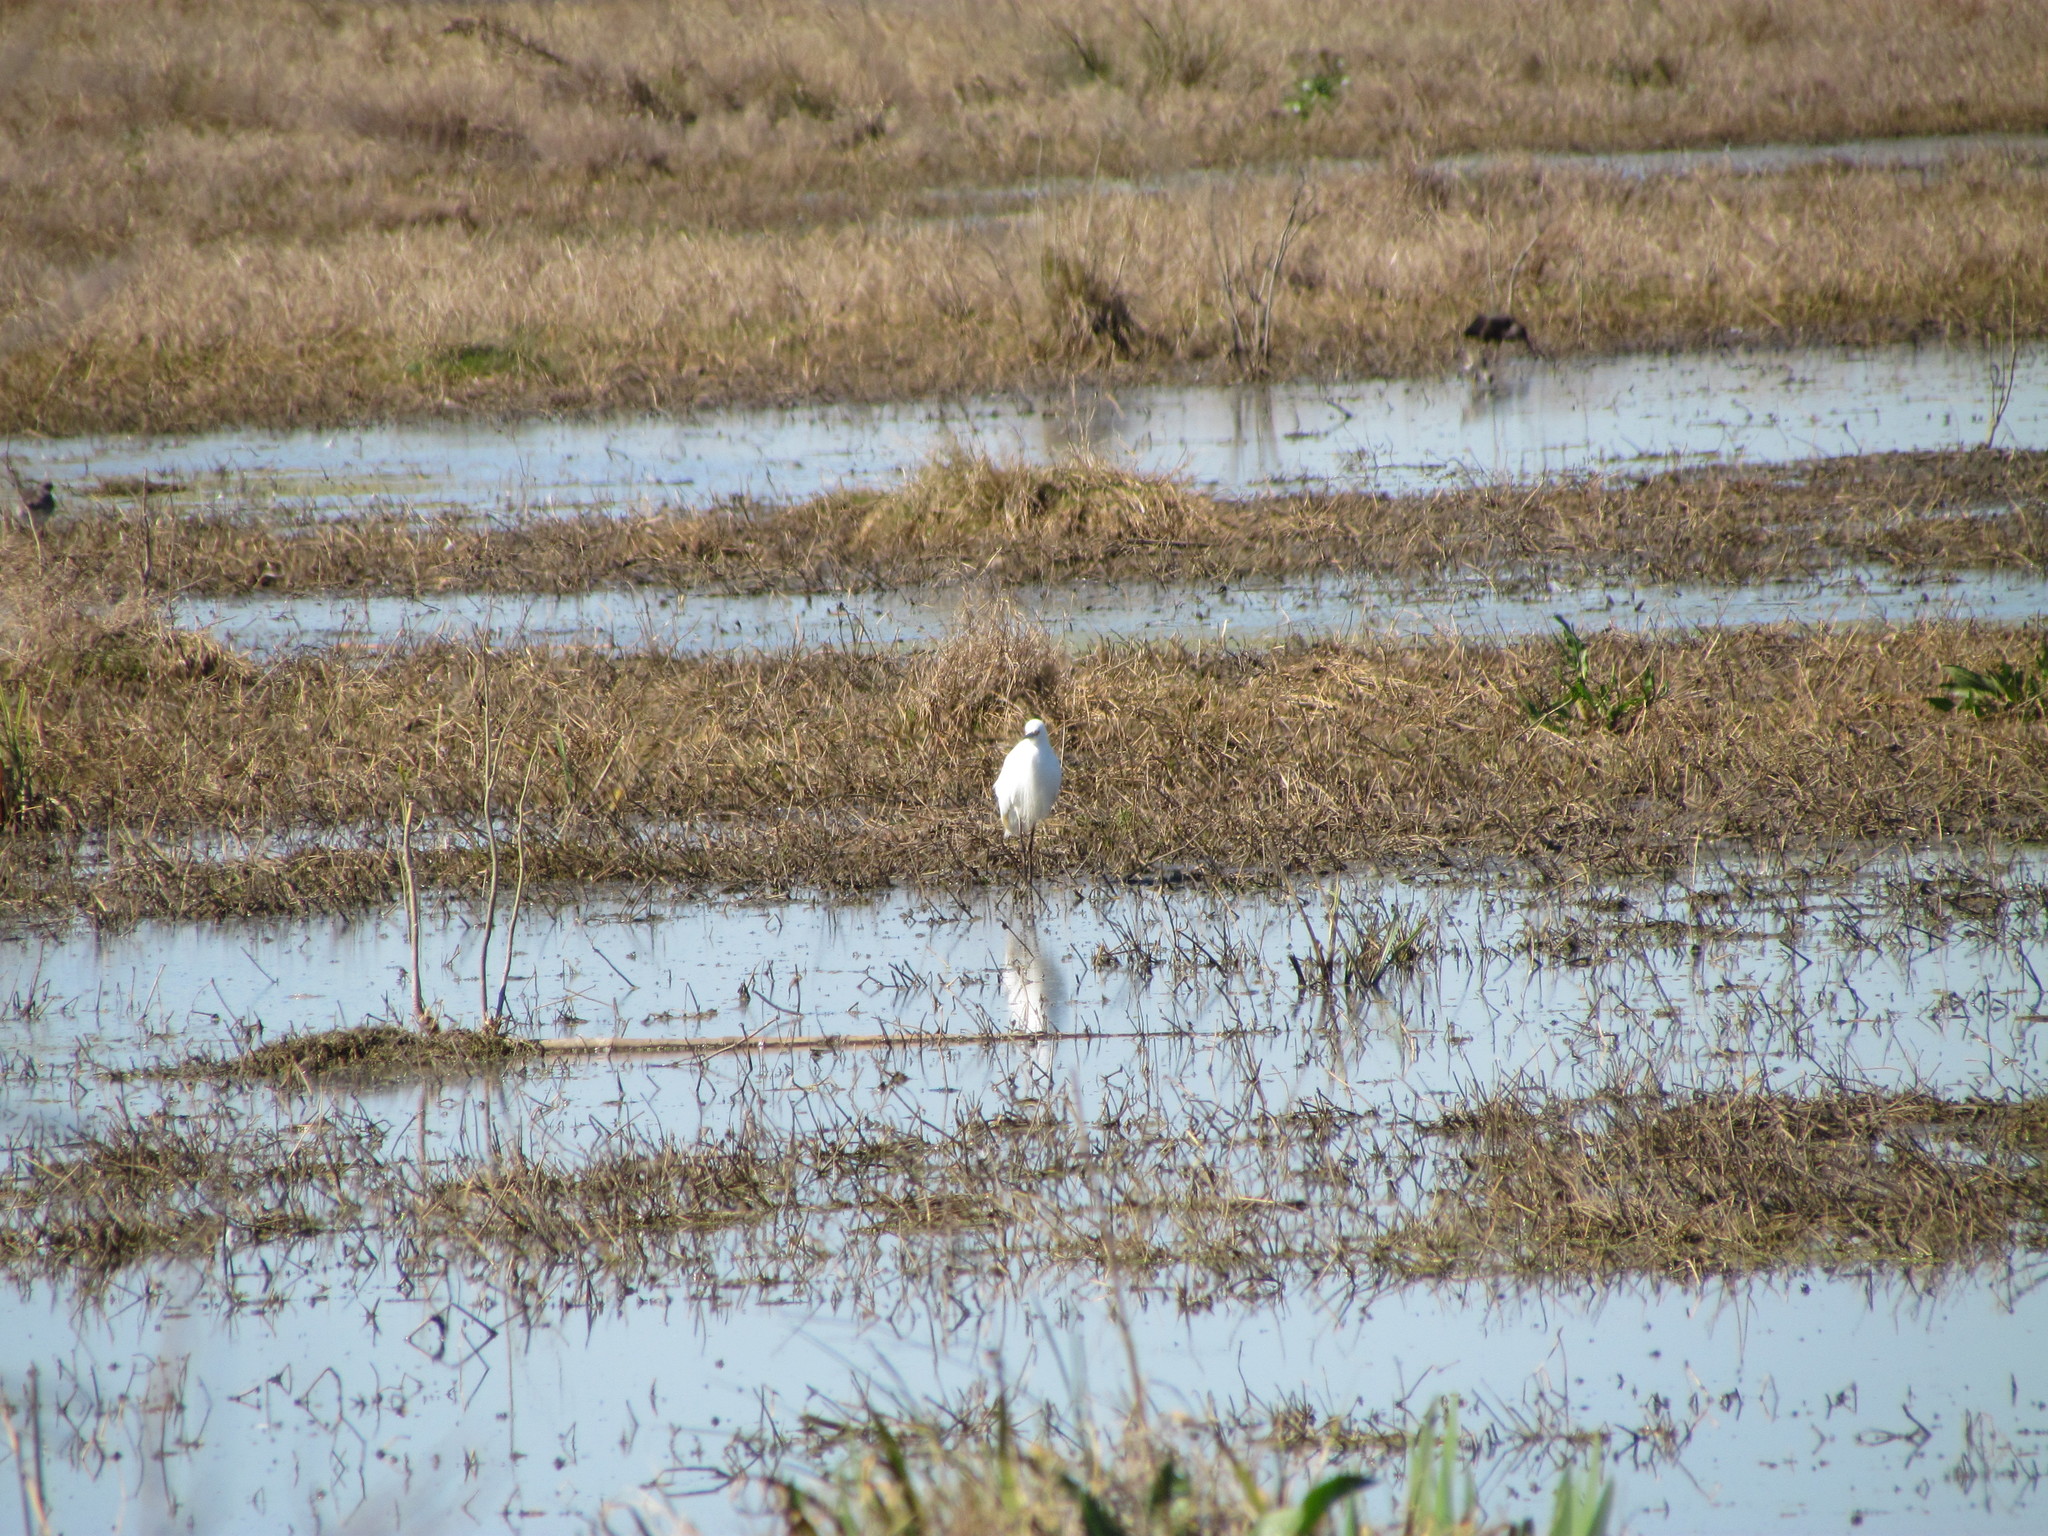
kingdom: Animalia
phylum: Chordata
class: Aves
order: Pelecaniformes
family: Ardeidae
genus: Egretta
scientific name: Egretta thula
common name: Snowy egret
